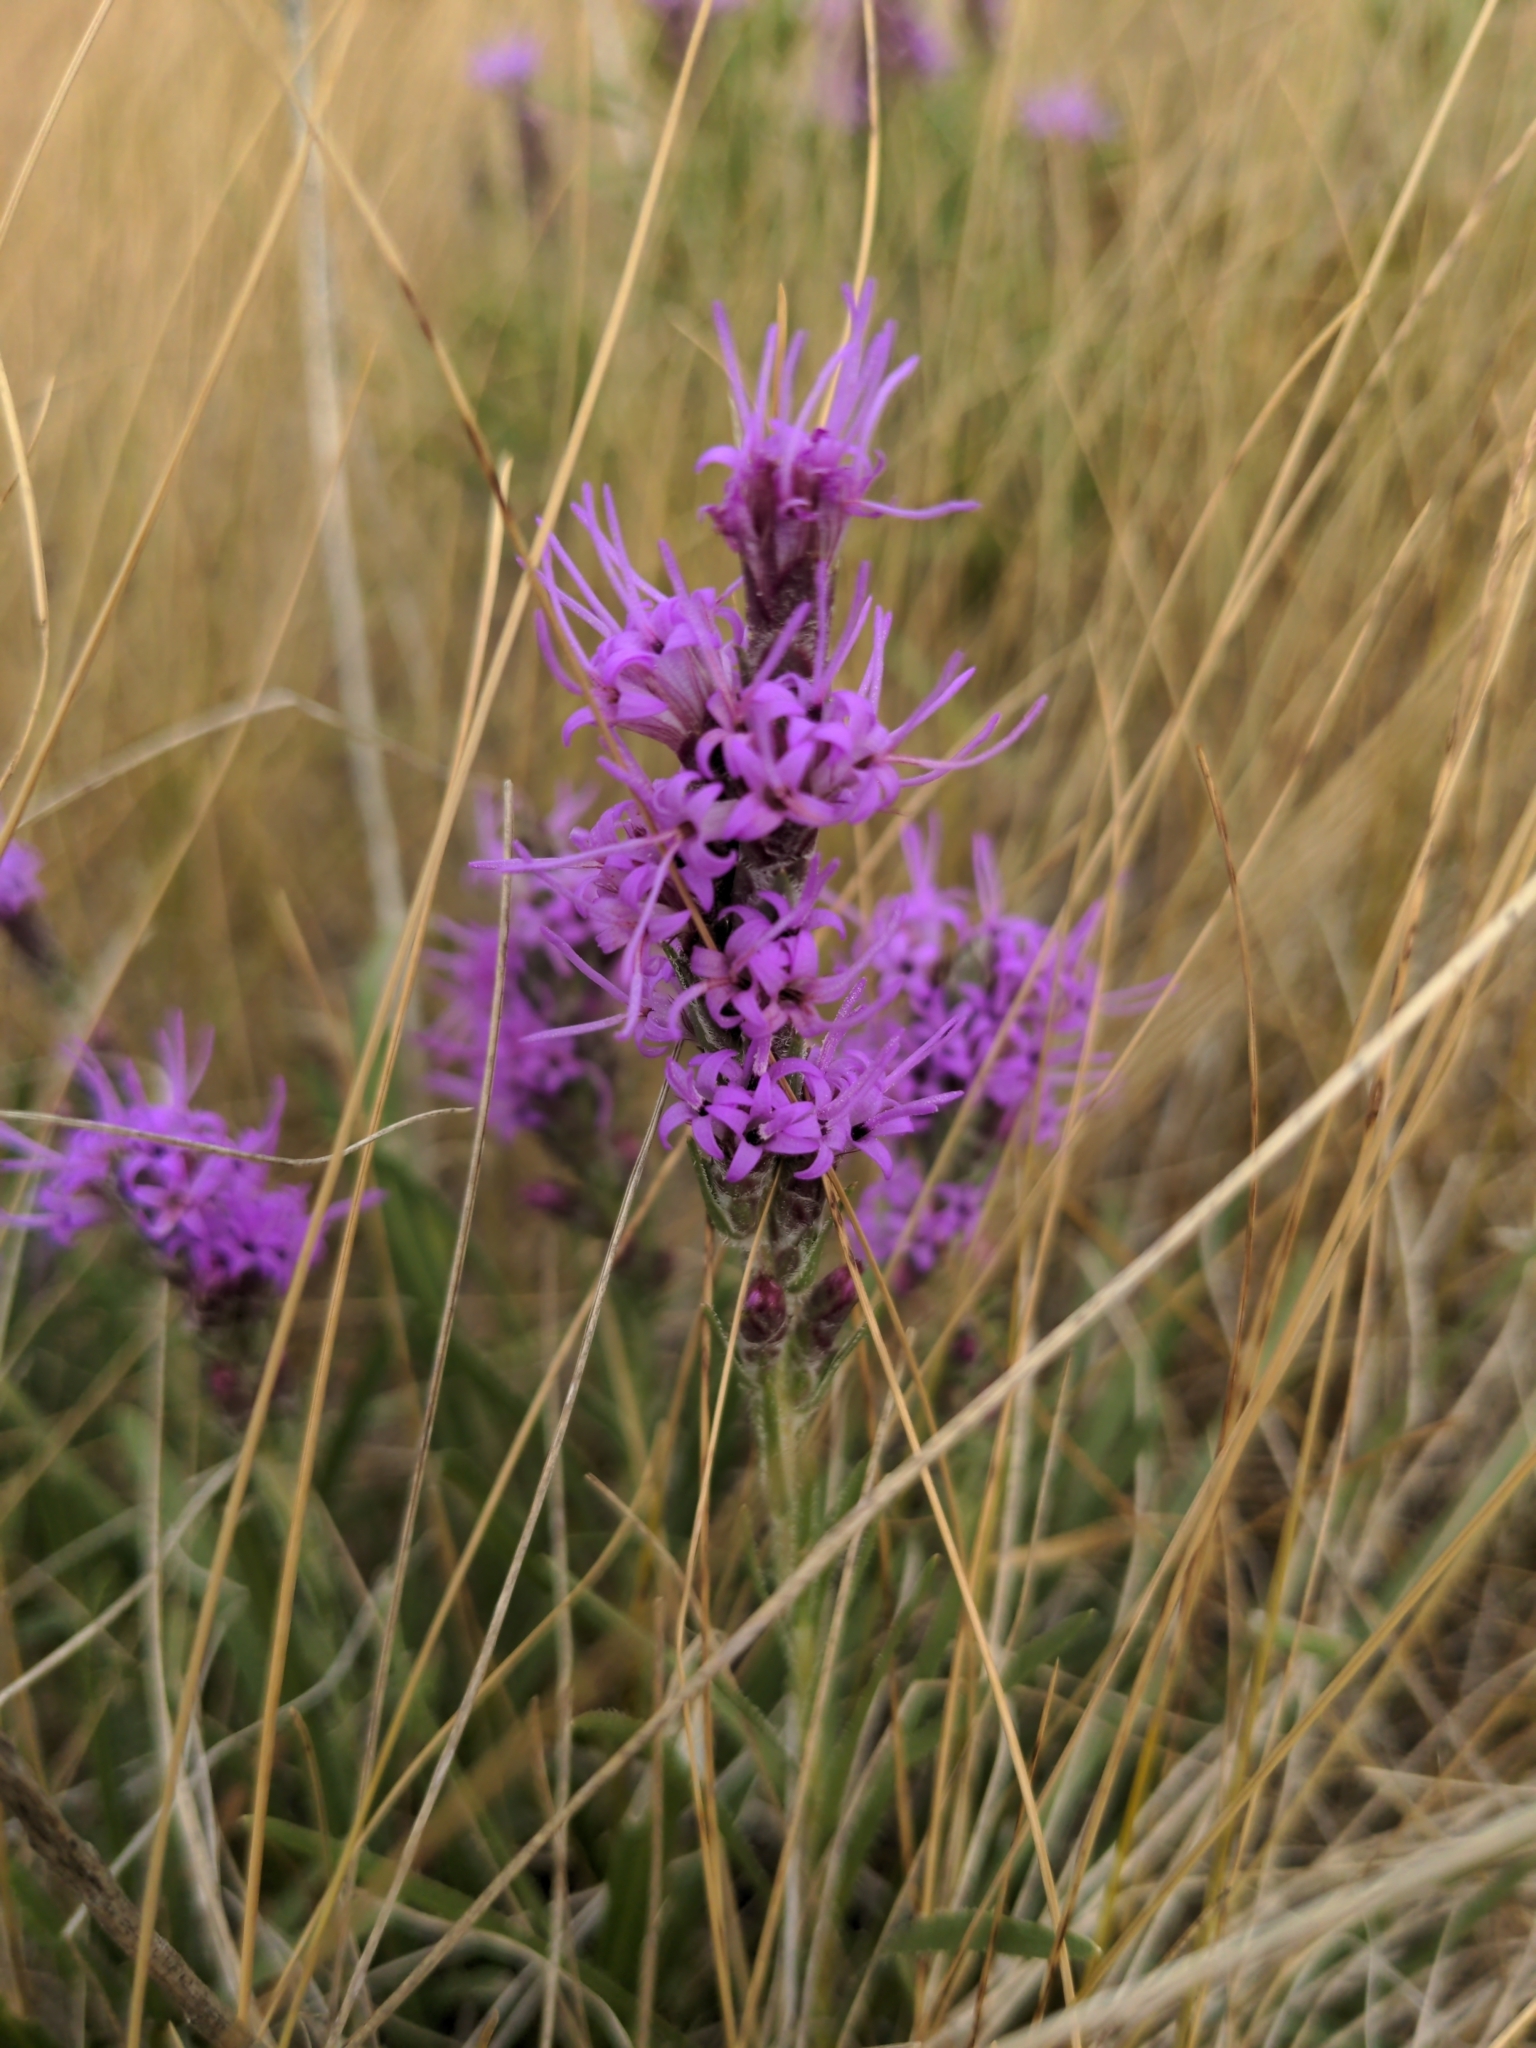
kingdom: Plantae
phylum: Tracheophyta
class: Magnoliopsida
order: Asterales
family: Asteraceae
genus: Liatris
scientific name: Liatris punctata
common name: Dotted gayfeather
